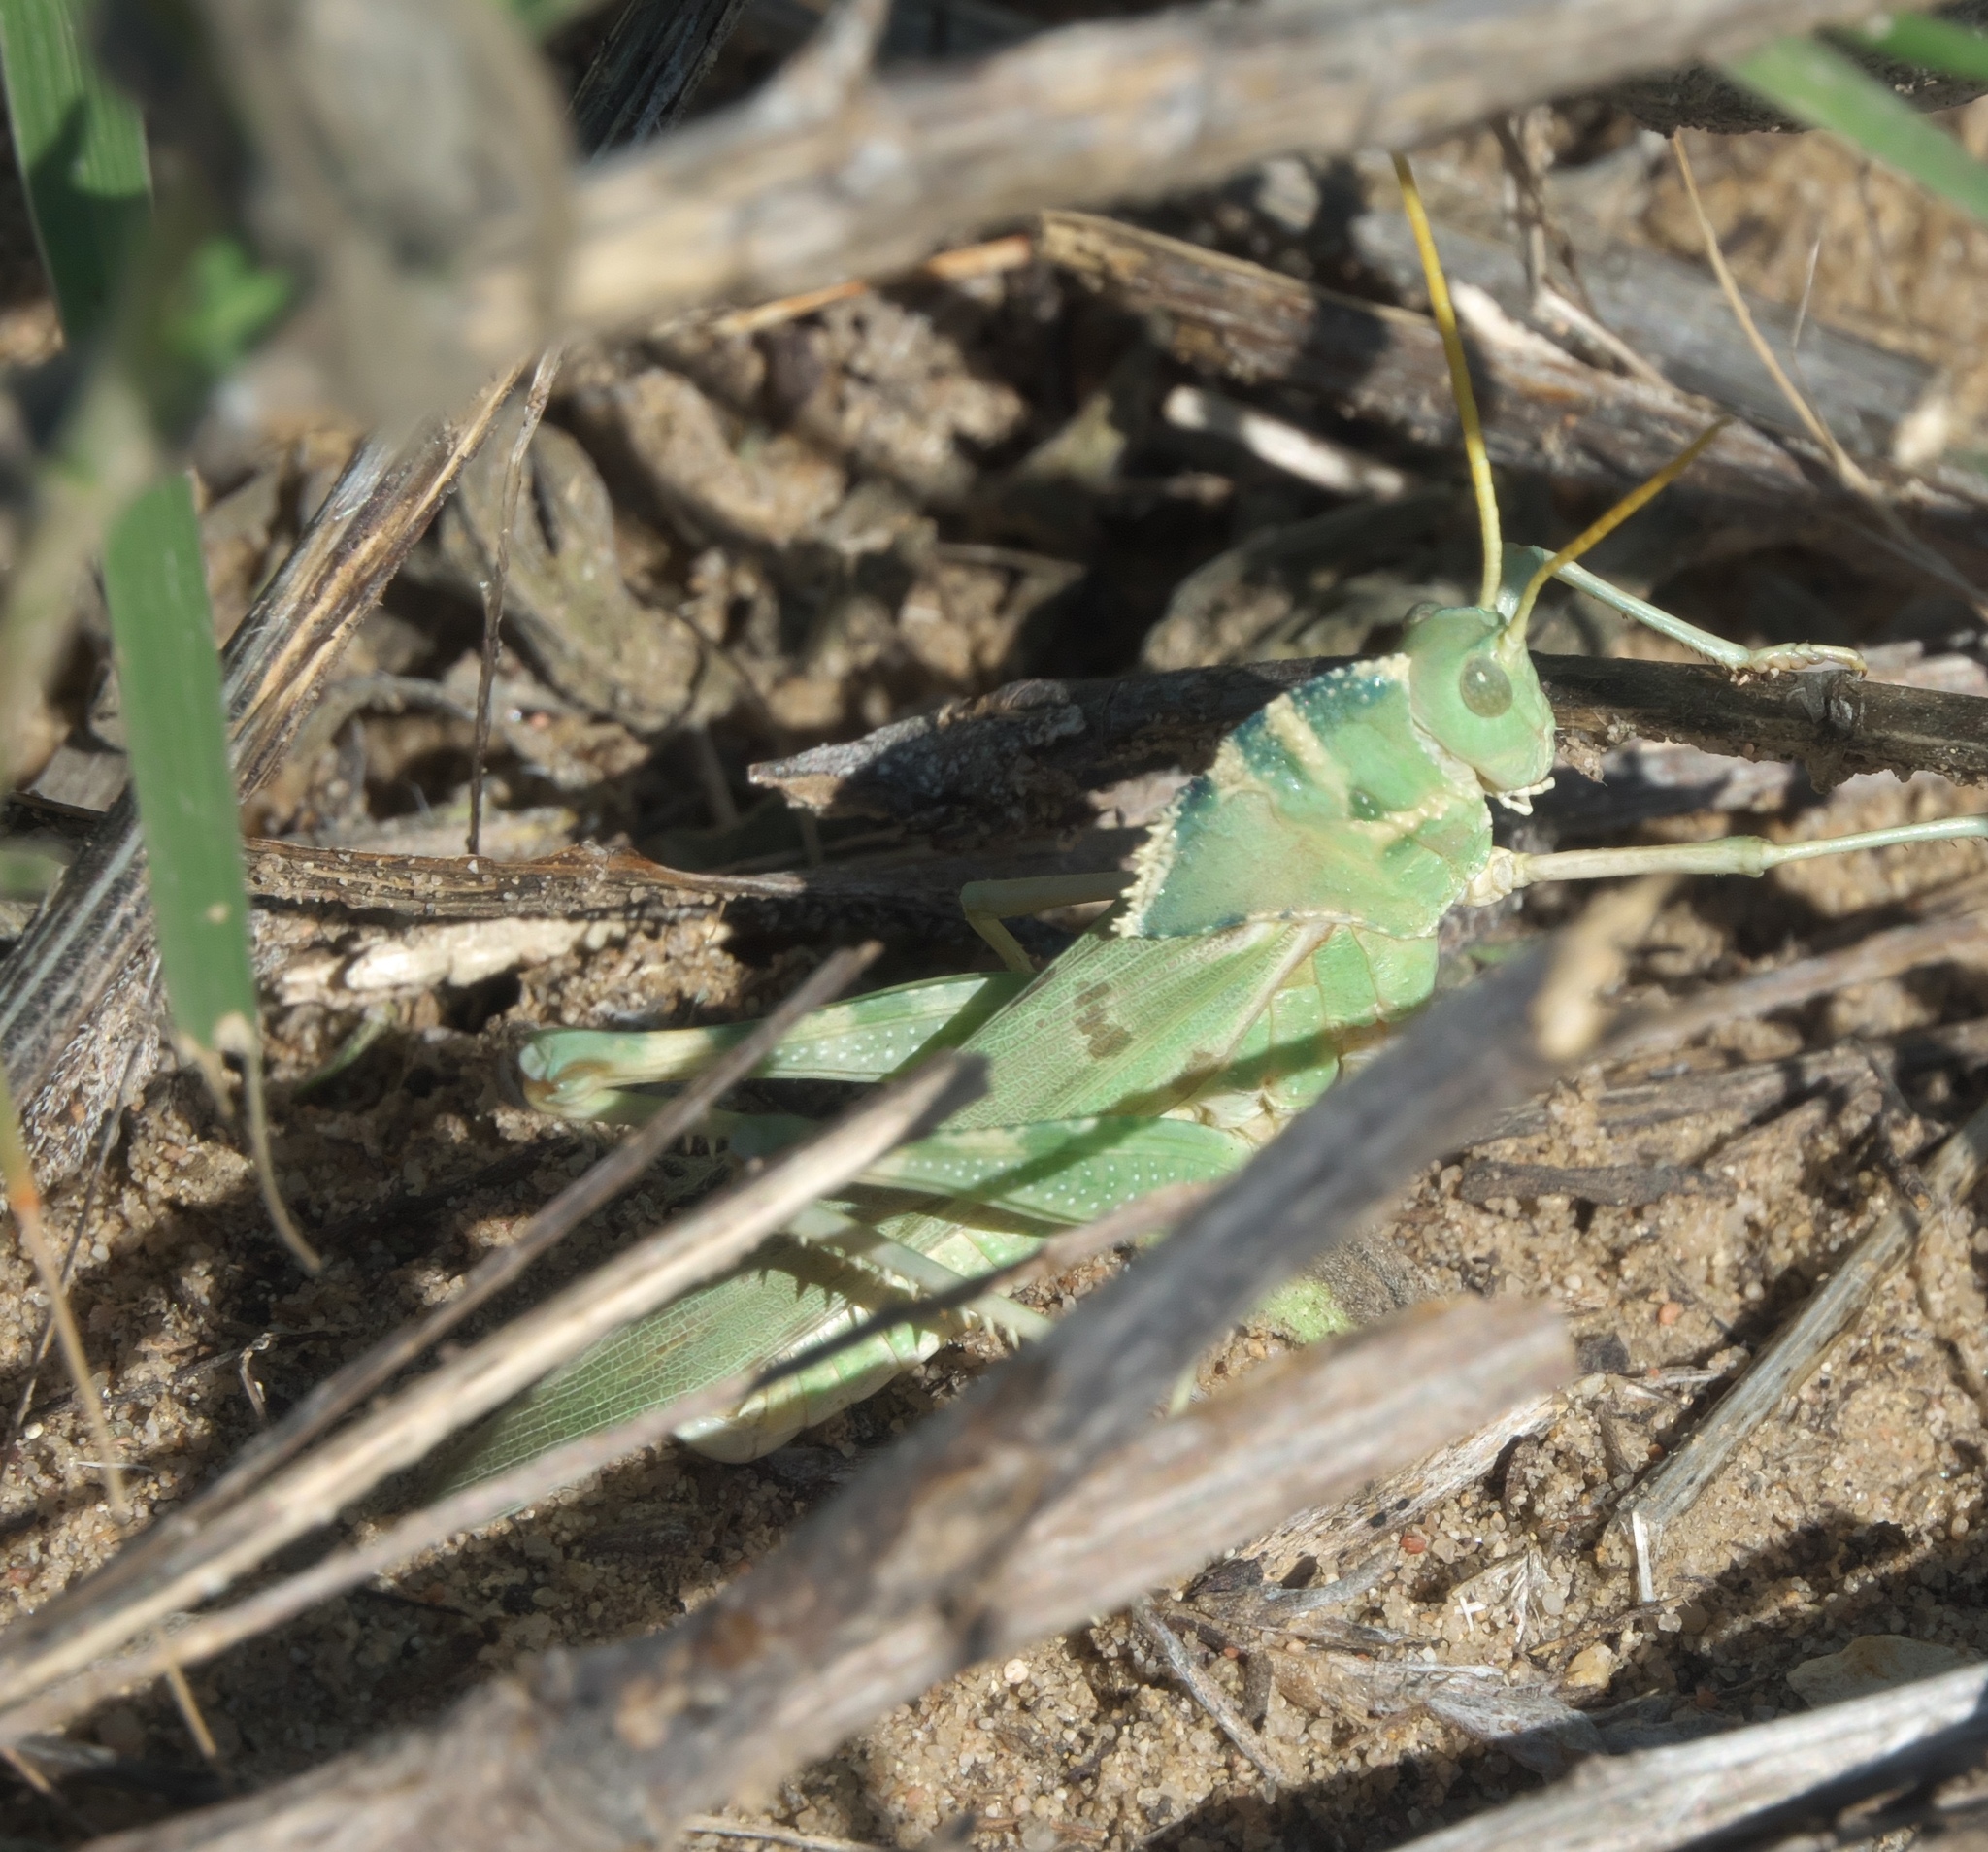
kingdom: Animalia
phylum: Arthropoda
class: Insecta
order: Orthoptera
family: Acrididae
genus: Tropidolophus
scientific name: Tropidolophus formosus
